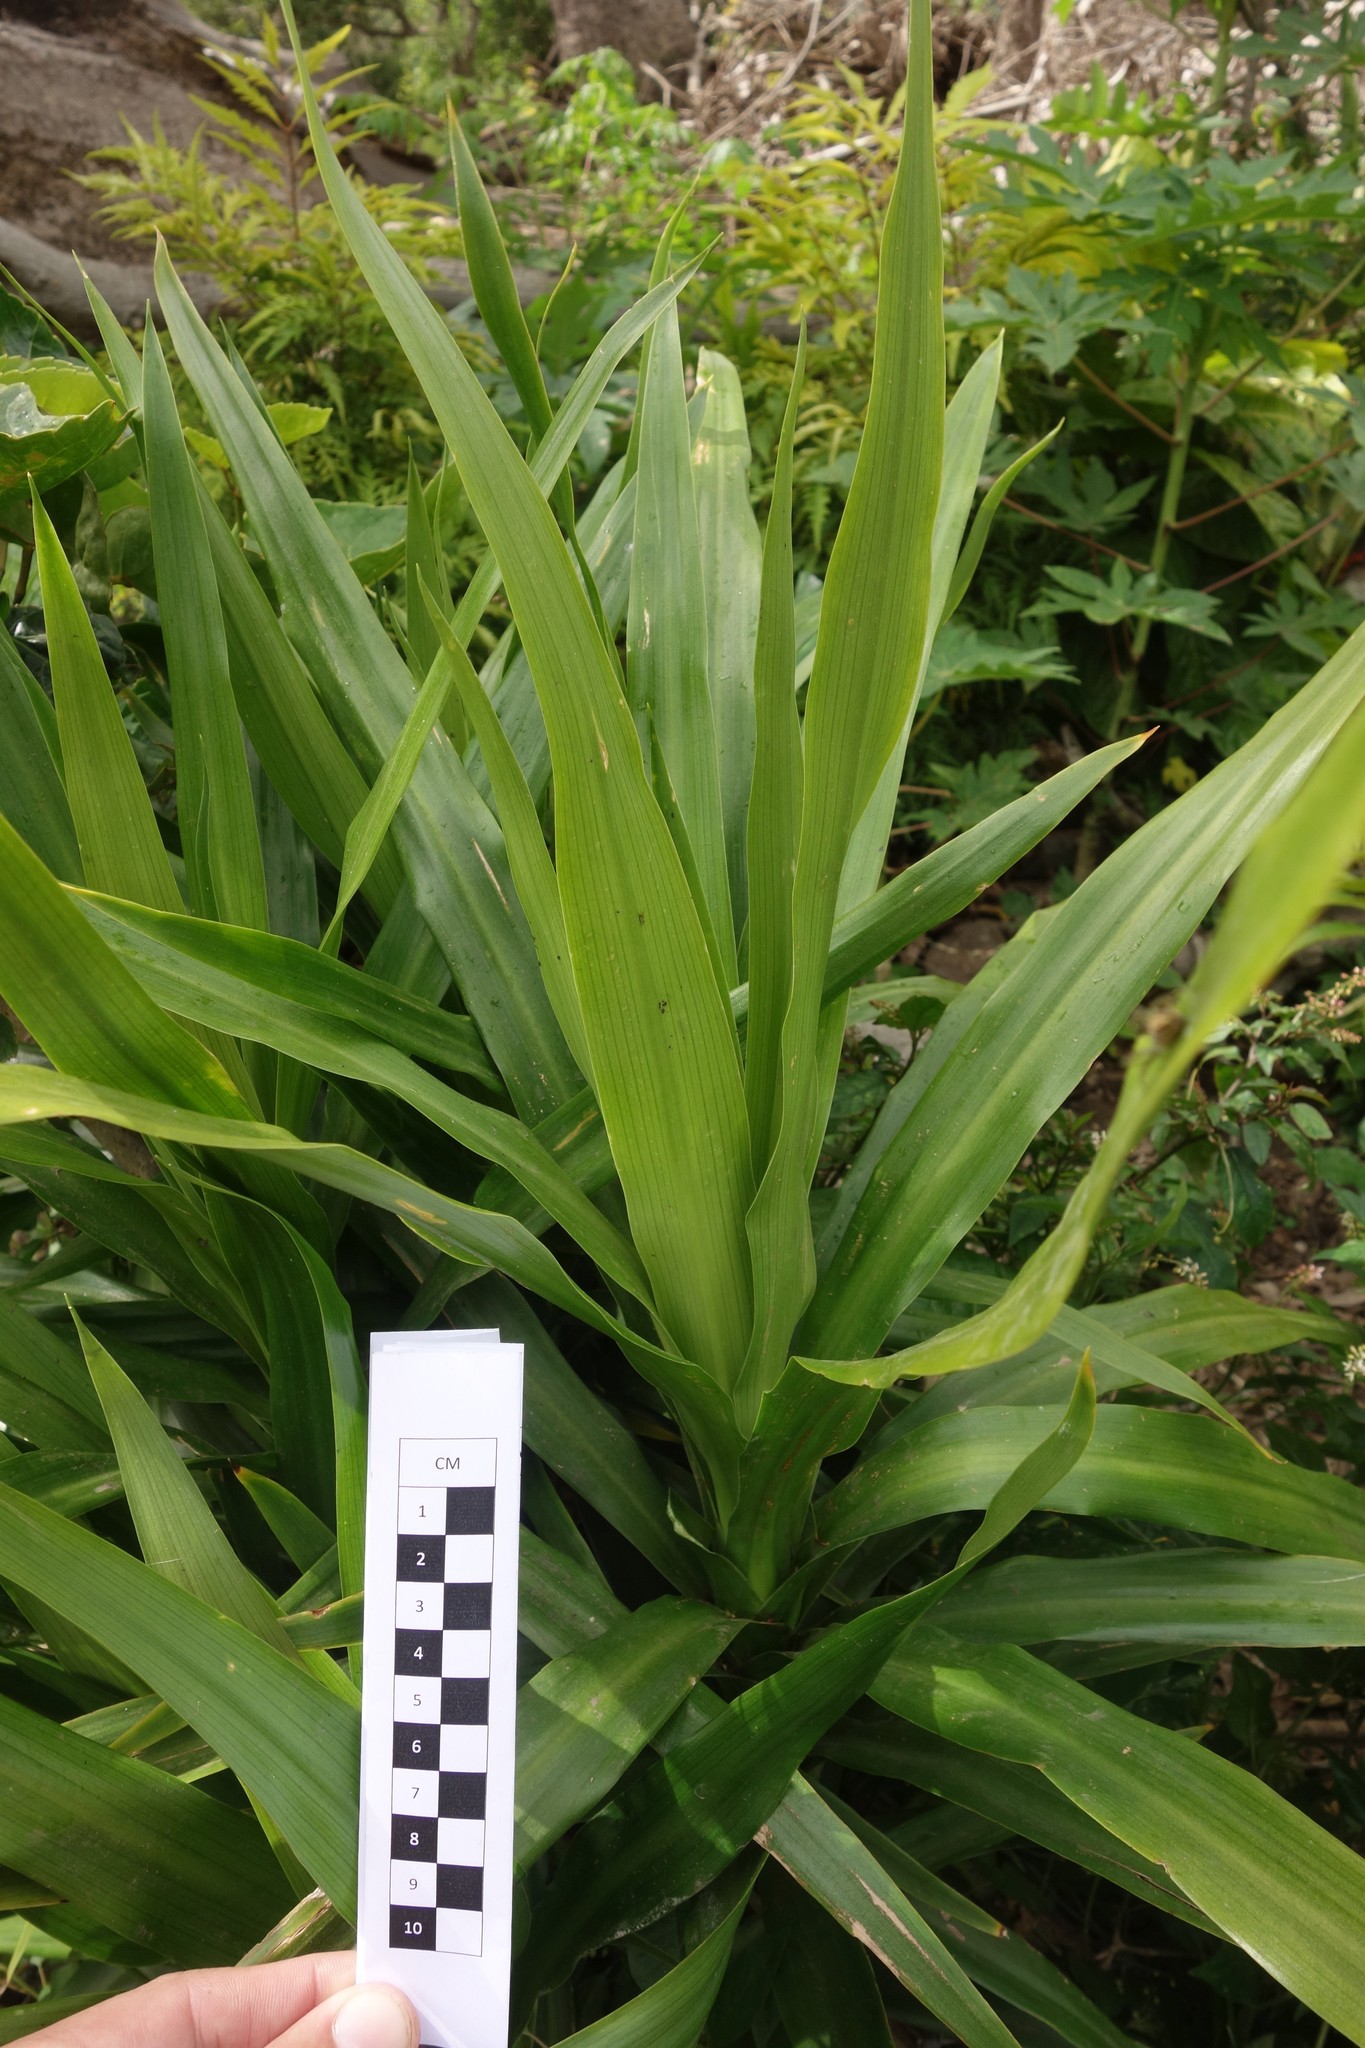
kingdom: Plantae
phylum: Tracheophyta
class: Liliopsida
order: Asparagales
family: Asparagaceae
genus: Cordyline
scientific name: Cordyline fruticosa
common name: Good-luck-plant
